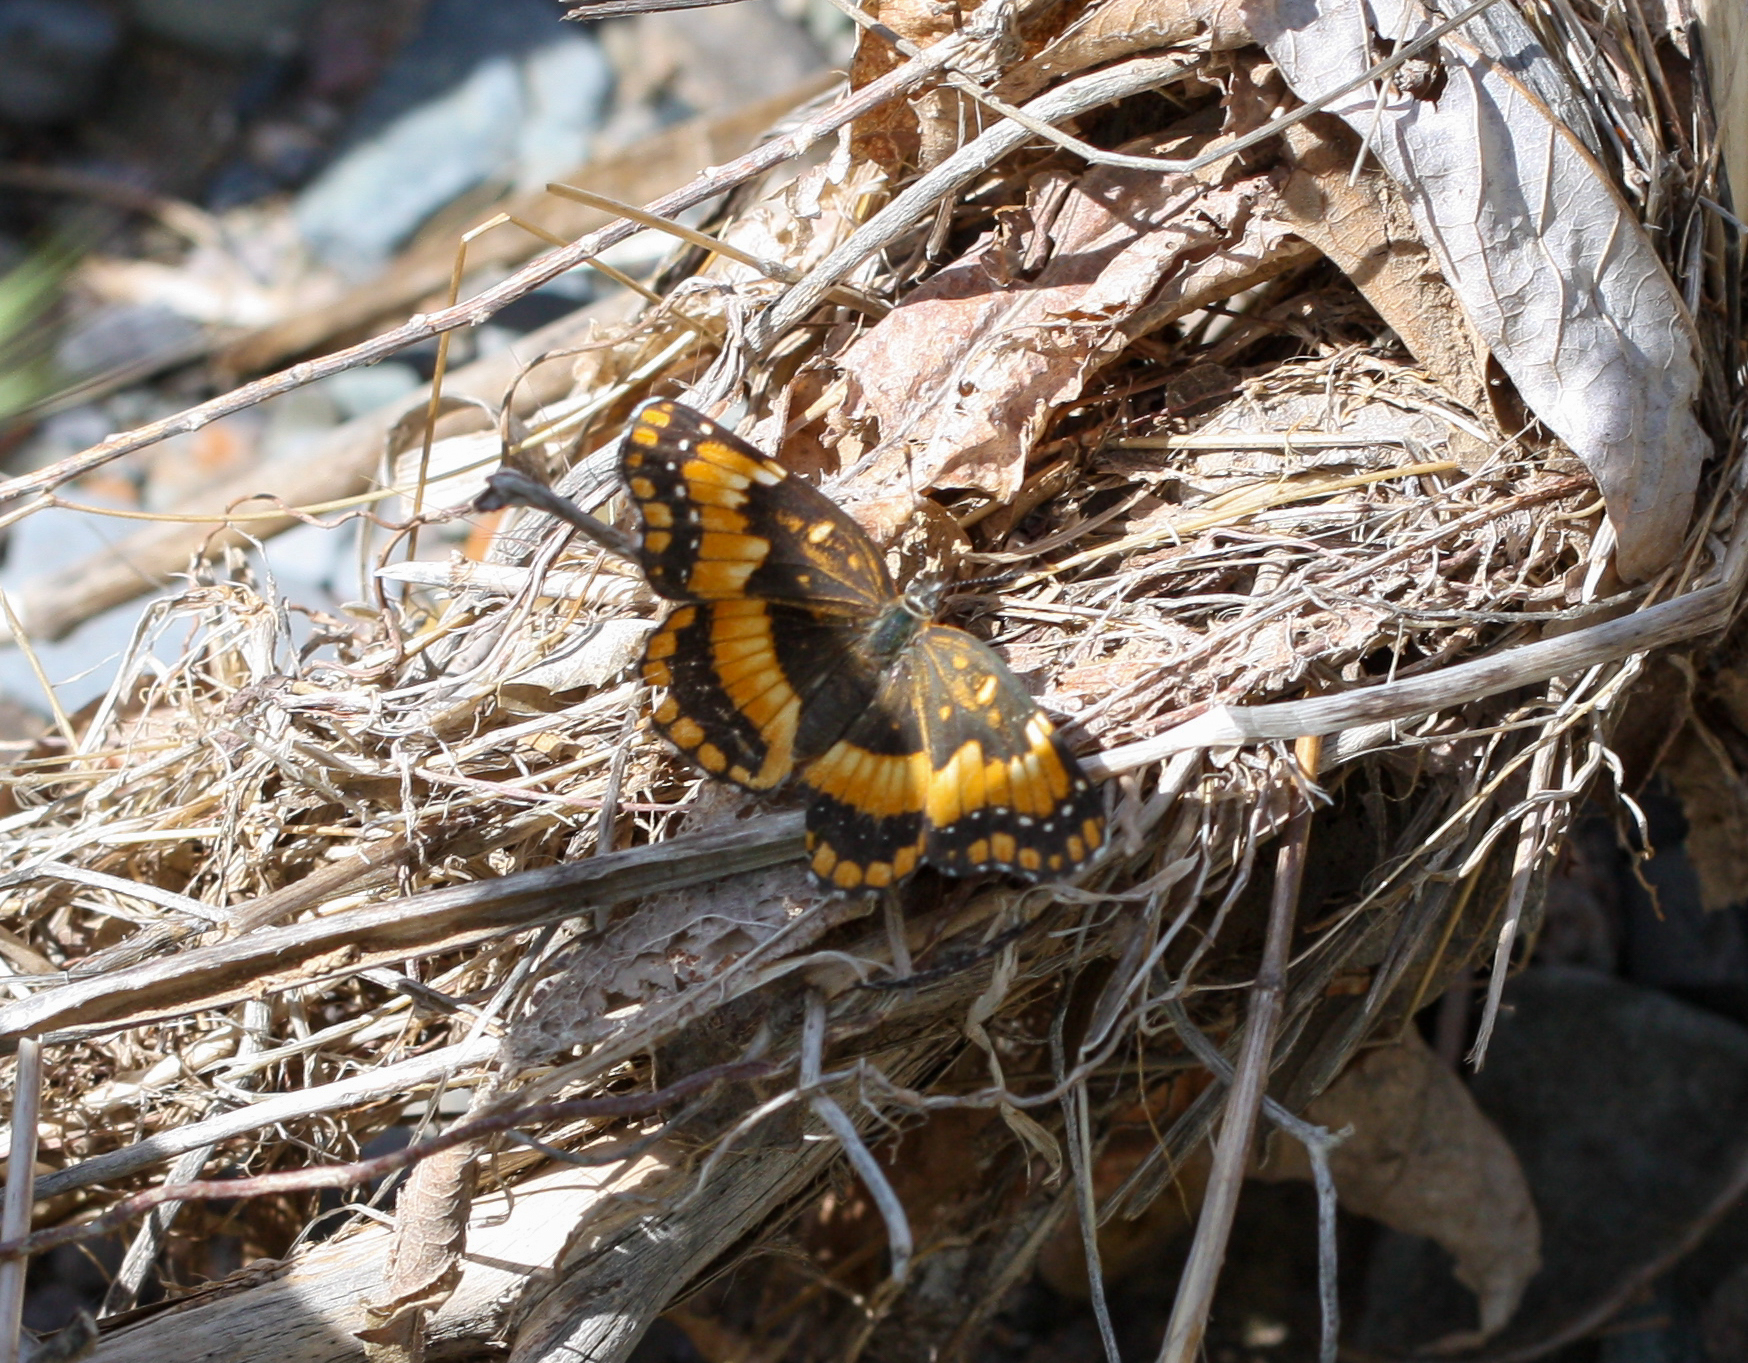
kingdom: Animalia
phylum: Arthropoda
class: Insecta
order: Lepidoptera
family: Nymphalidae
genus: Chlosyne
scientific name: Chlosyne californica
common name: California patch
